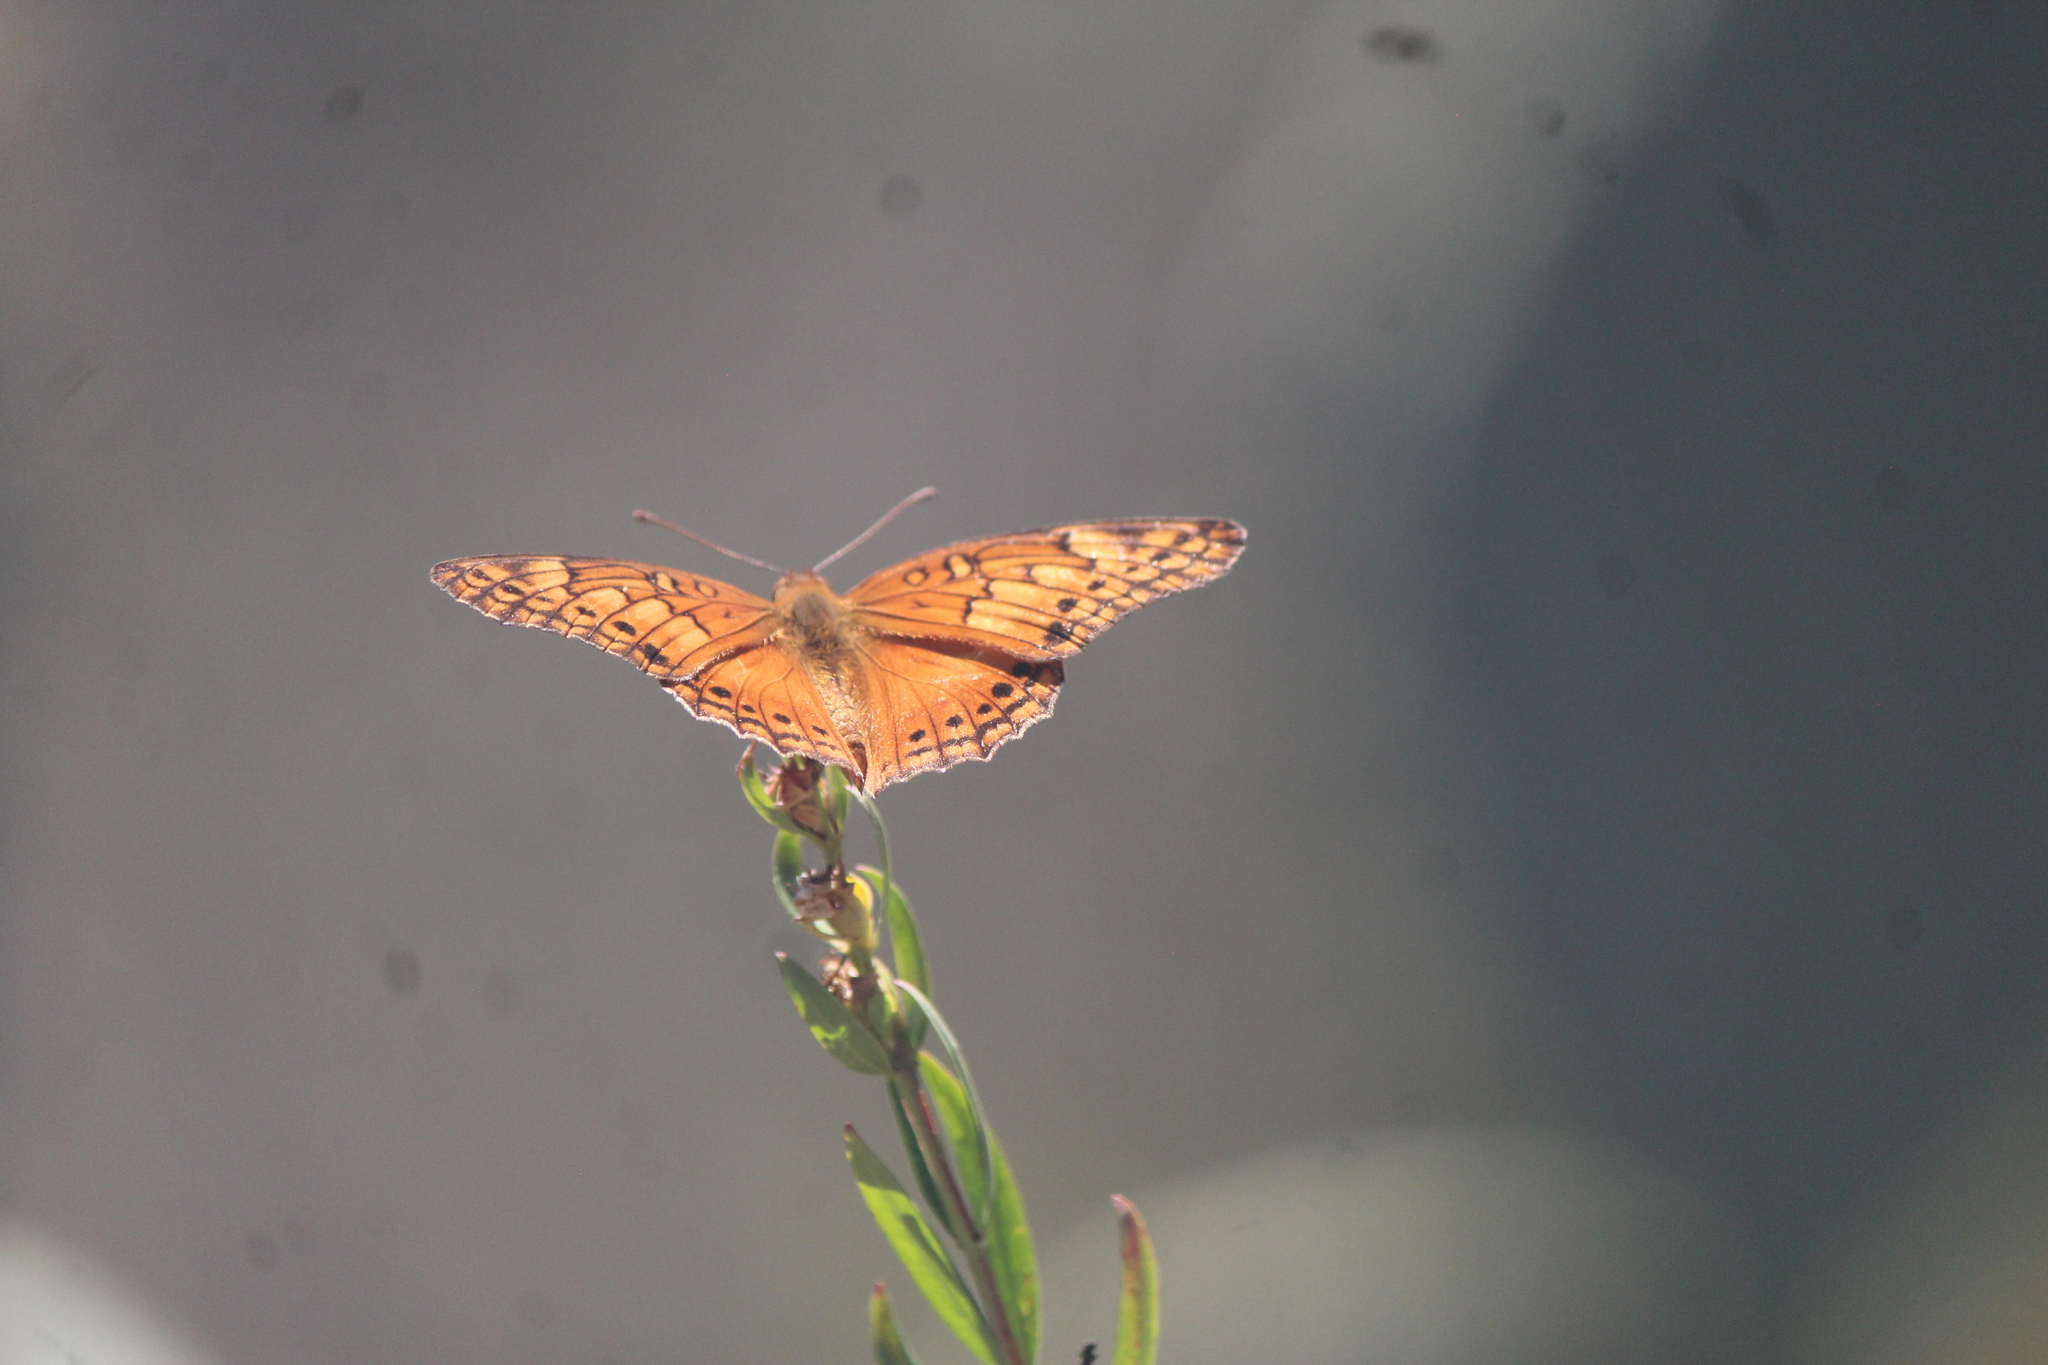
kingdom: Animalia
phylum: Arthropoda
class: Insecta
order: Lepidoptera
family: Nymphalidae
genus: Euptoieta
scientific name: Euptoieta hegesia
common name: Mexican fritillary
